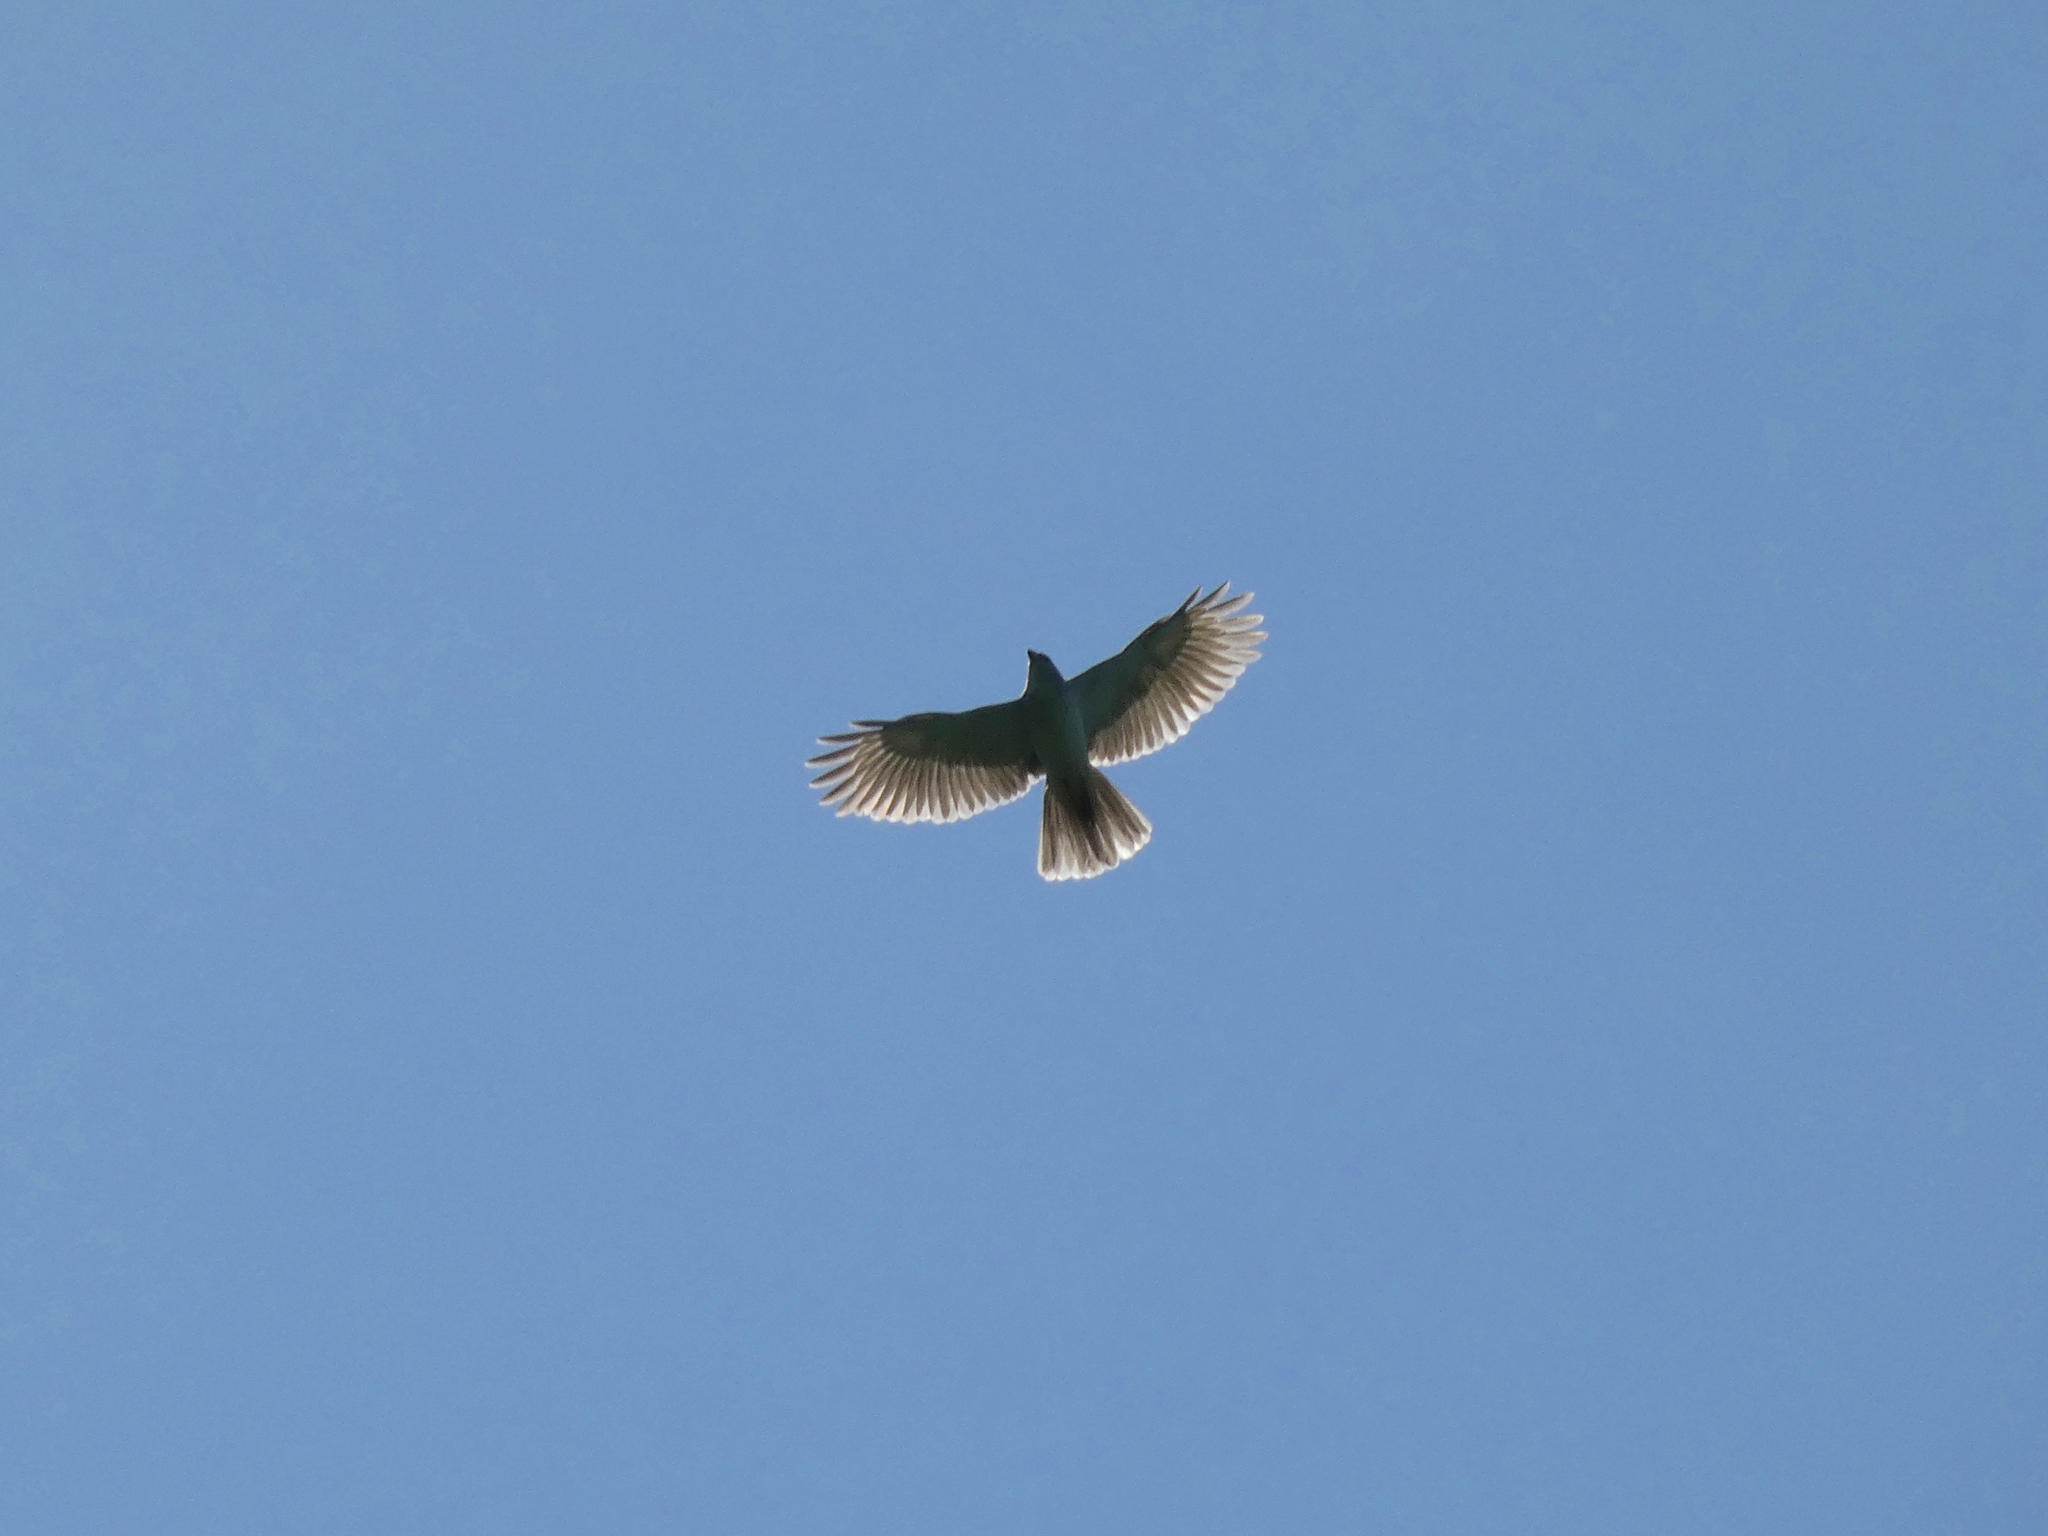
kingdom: Animalia
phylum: Chordata
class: Aves
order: Accipitriformes
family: Accipitridae
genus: Accipiter
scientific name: Accipiter novaehollandiae
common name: Grey goshawk
